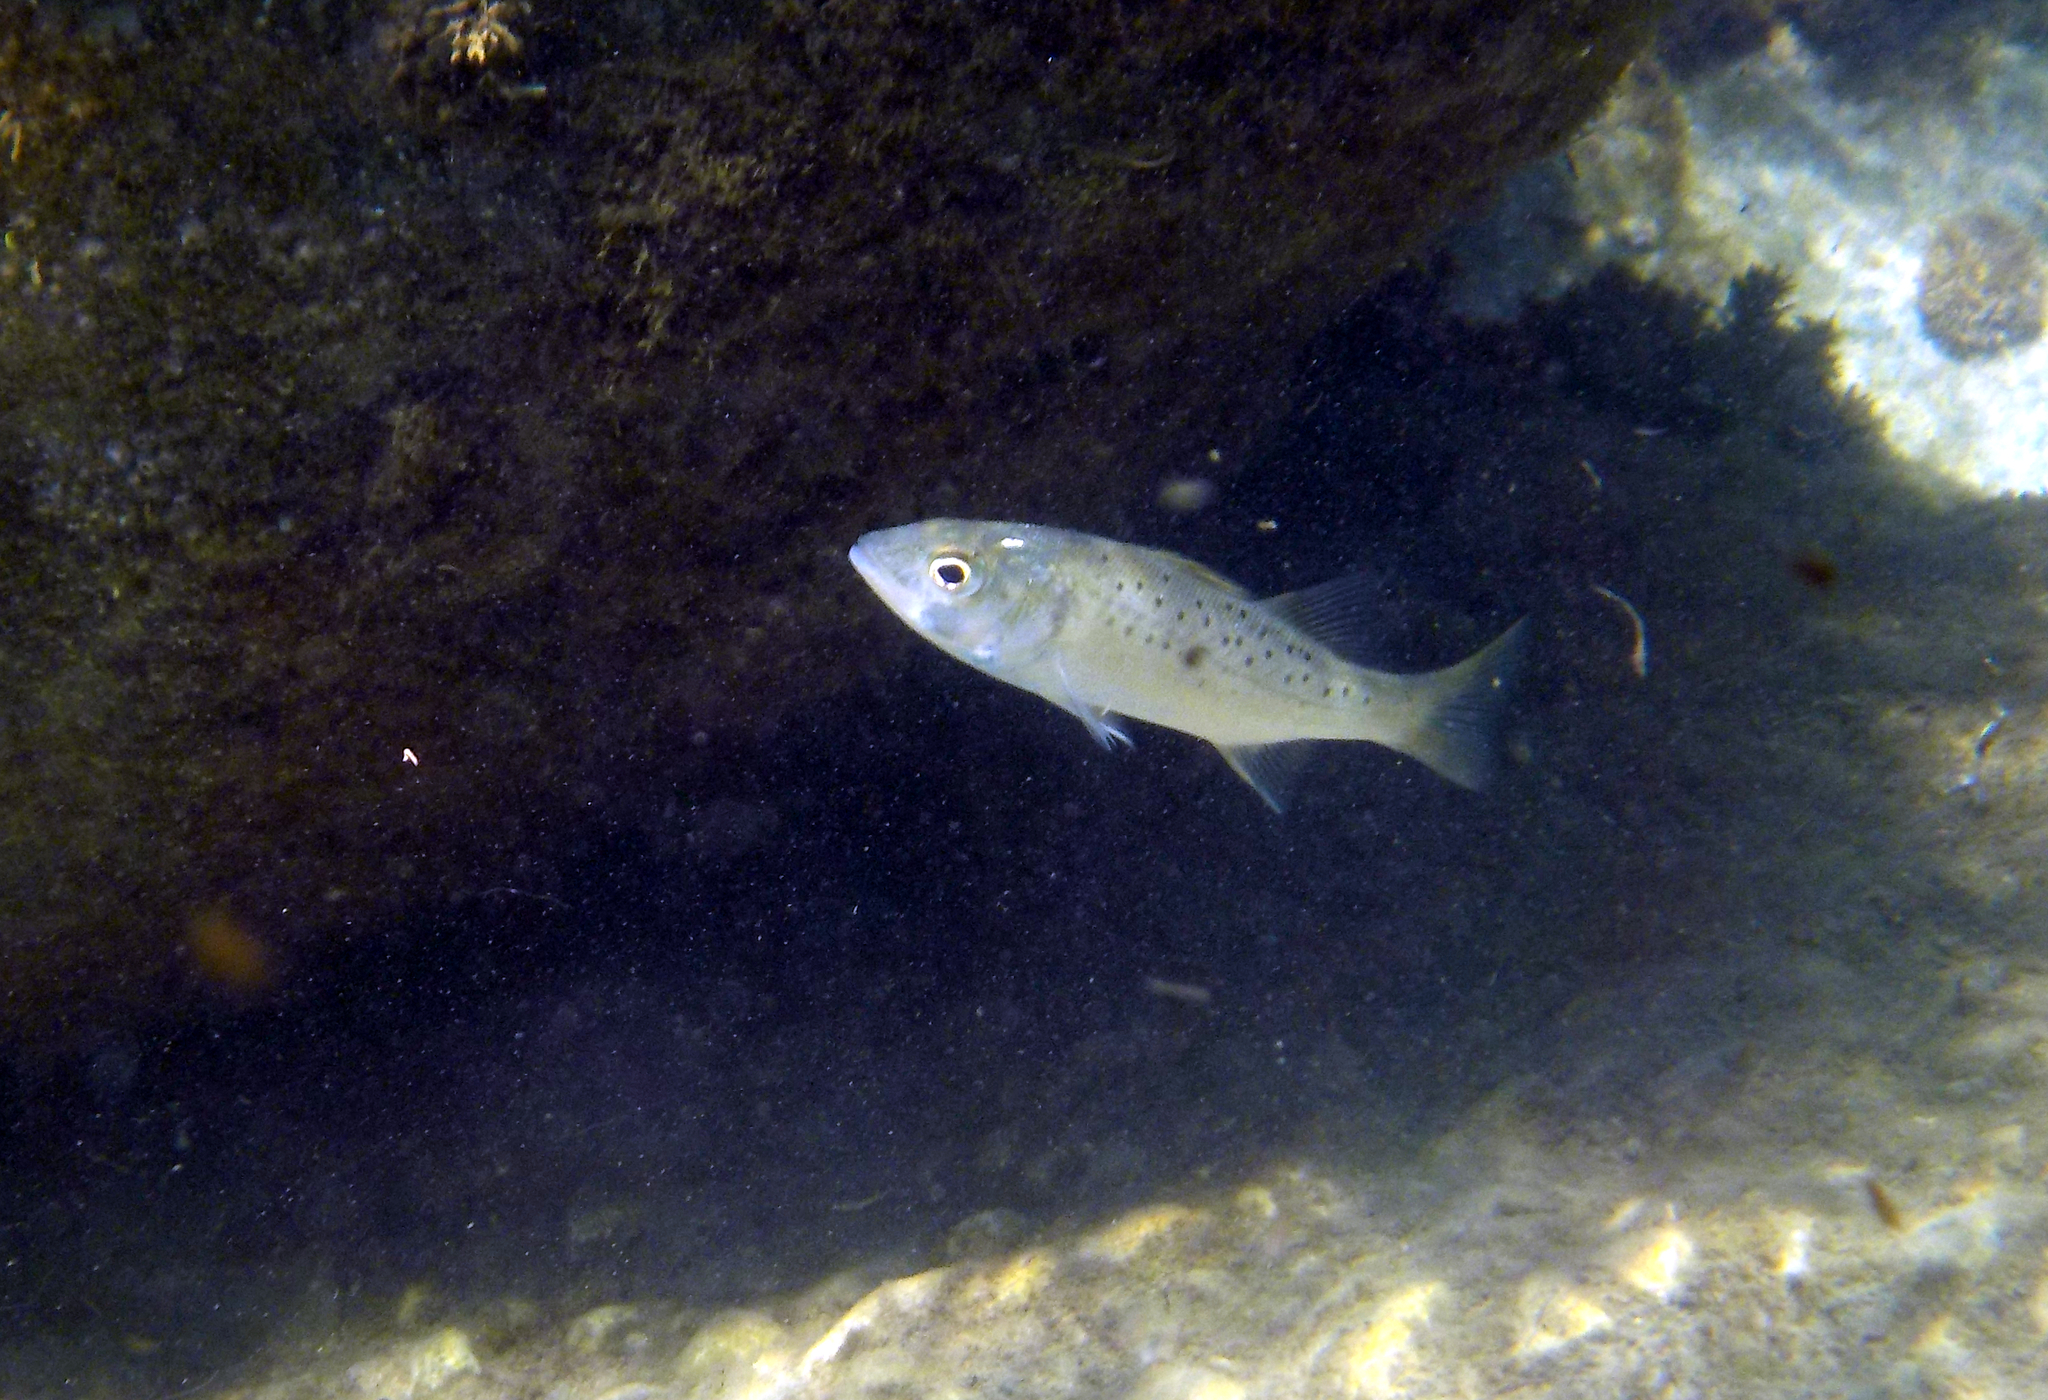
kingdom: Animalia
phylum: Chordata
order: Perciformes
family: Moronidae
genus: Dicentrarchus
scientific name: Dicentrarchus labrax
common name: European seabass
